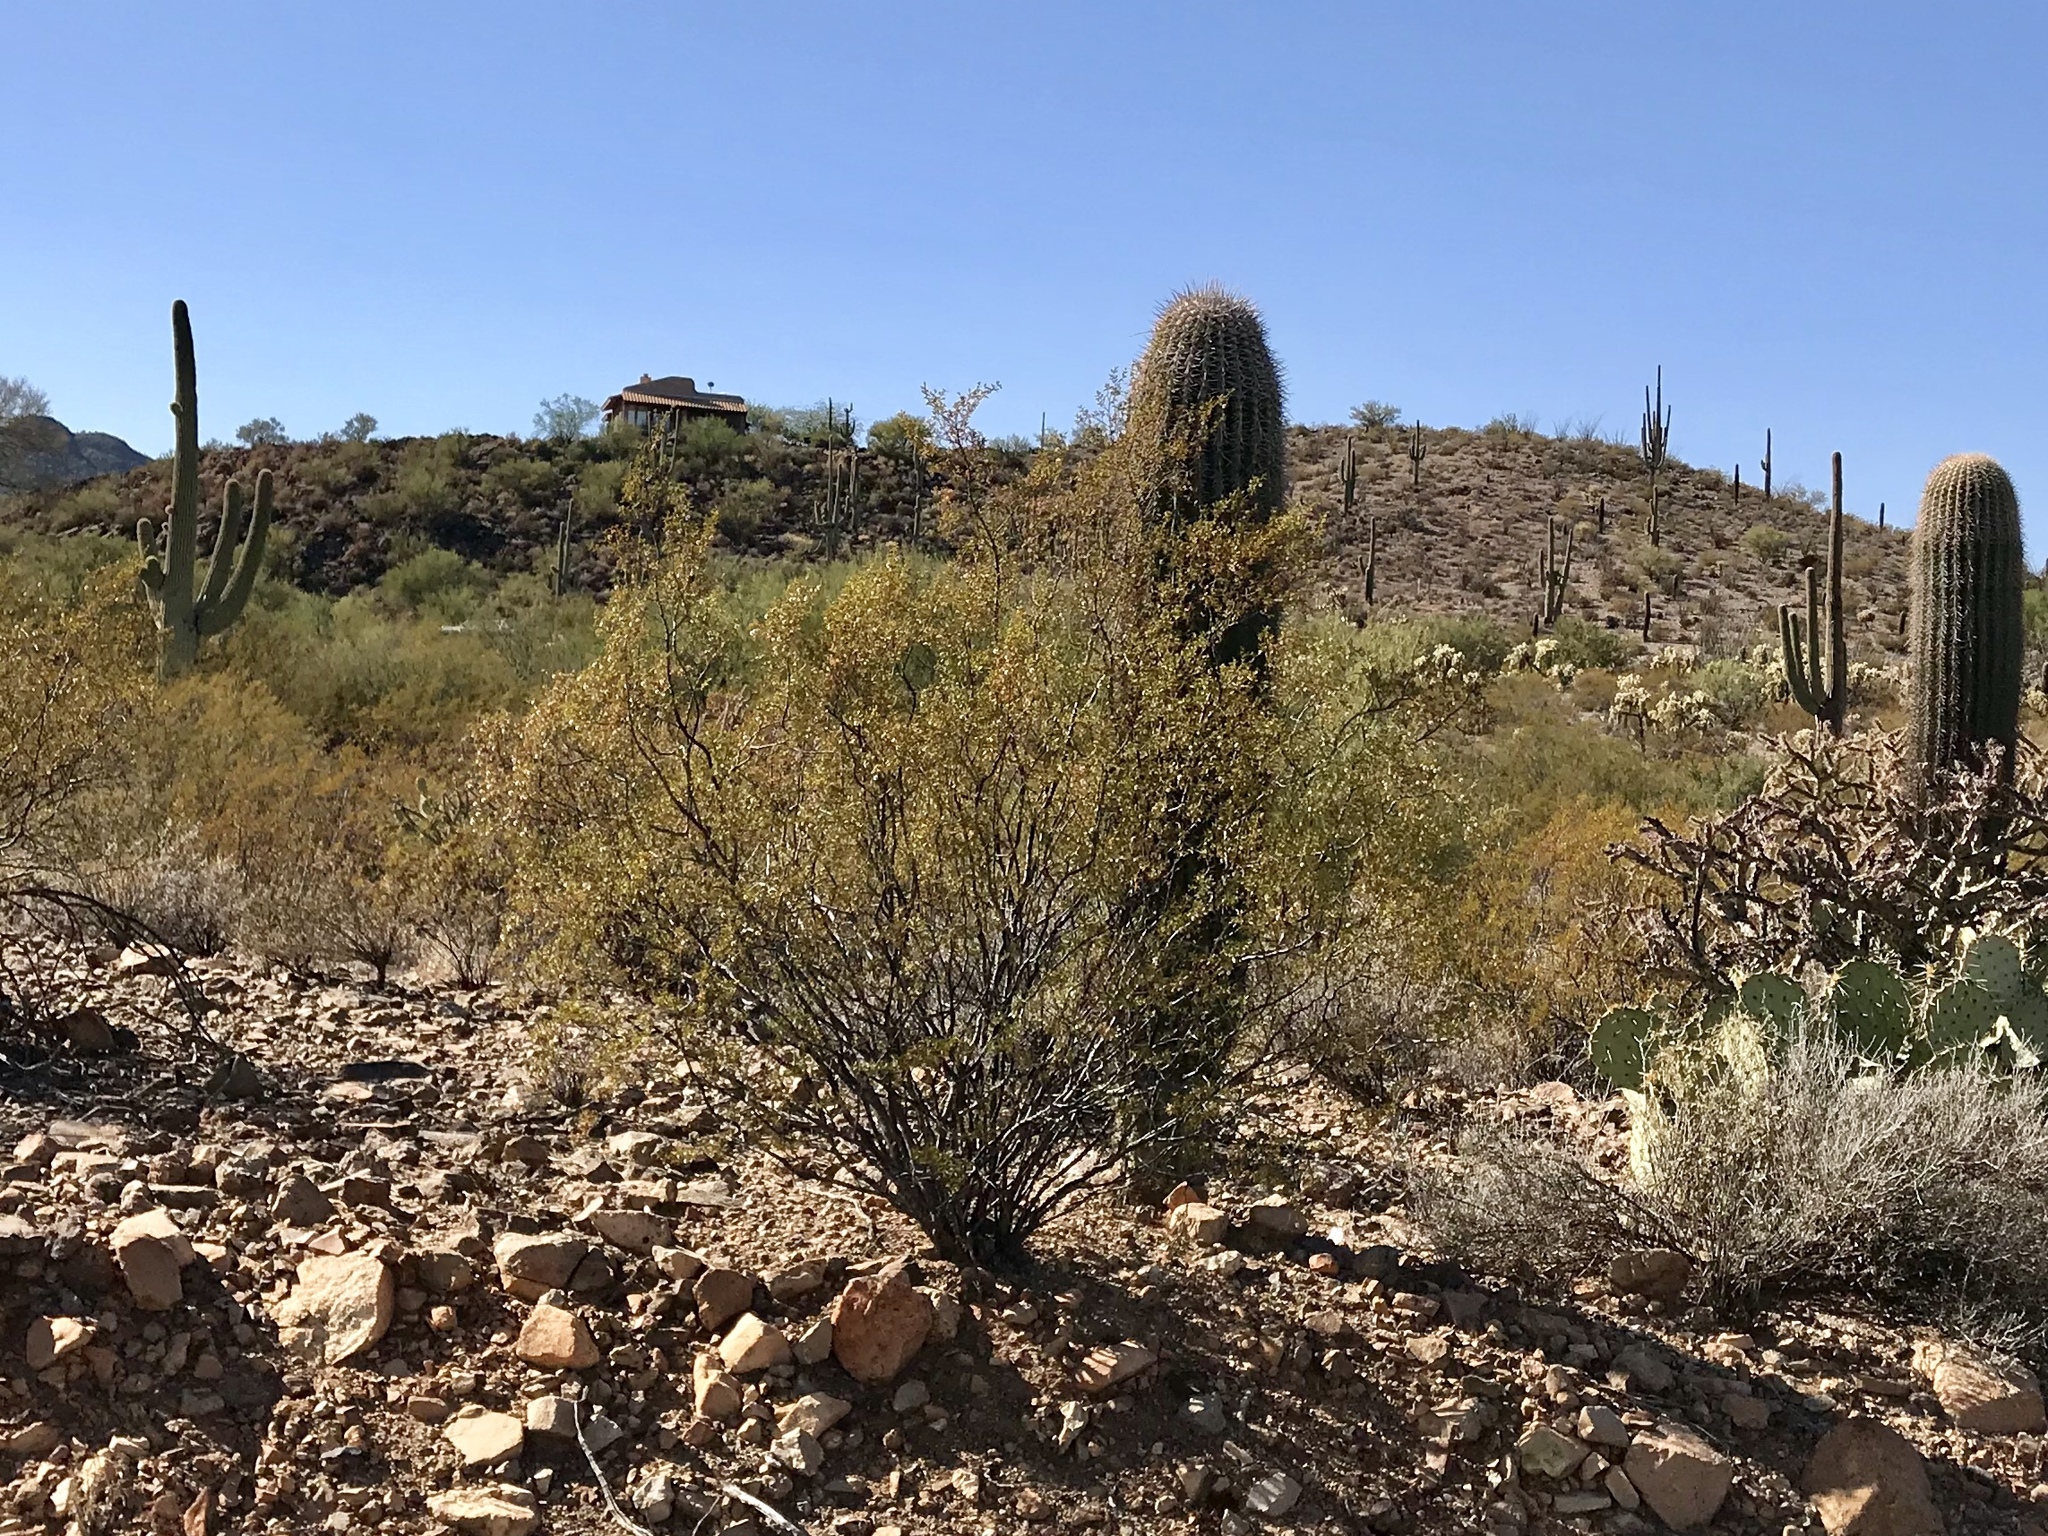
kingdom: Plantae
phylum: Tracheophyta
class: Magnoliopsida
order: Zygophyllales
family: Zygophyllaceae
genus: Larrea
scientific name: Larrea tridentata
